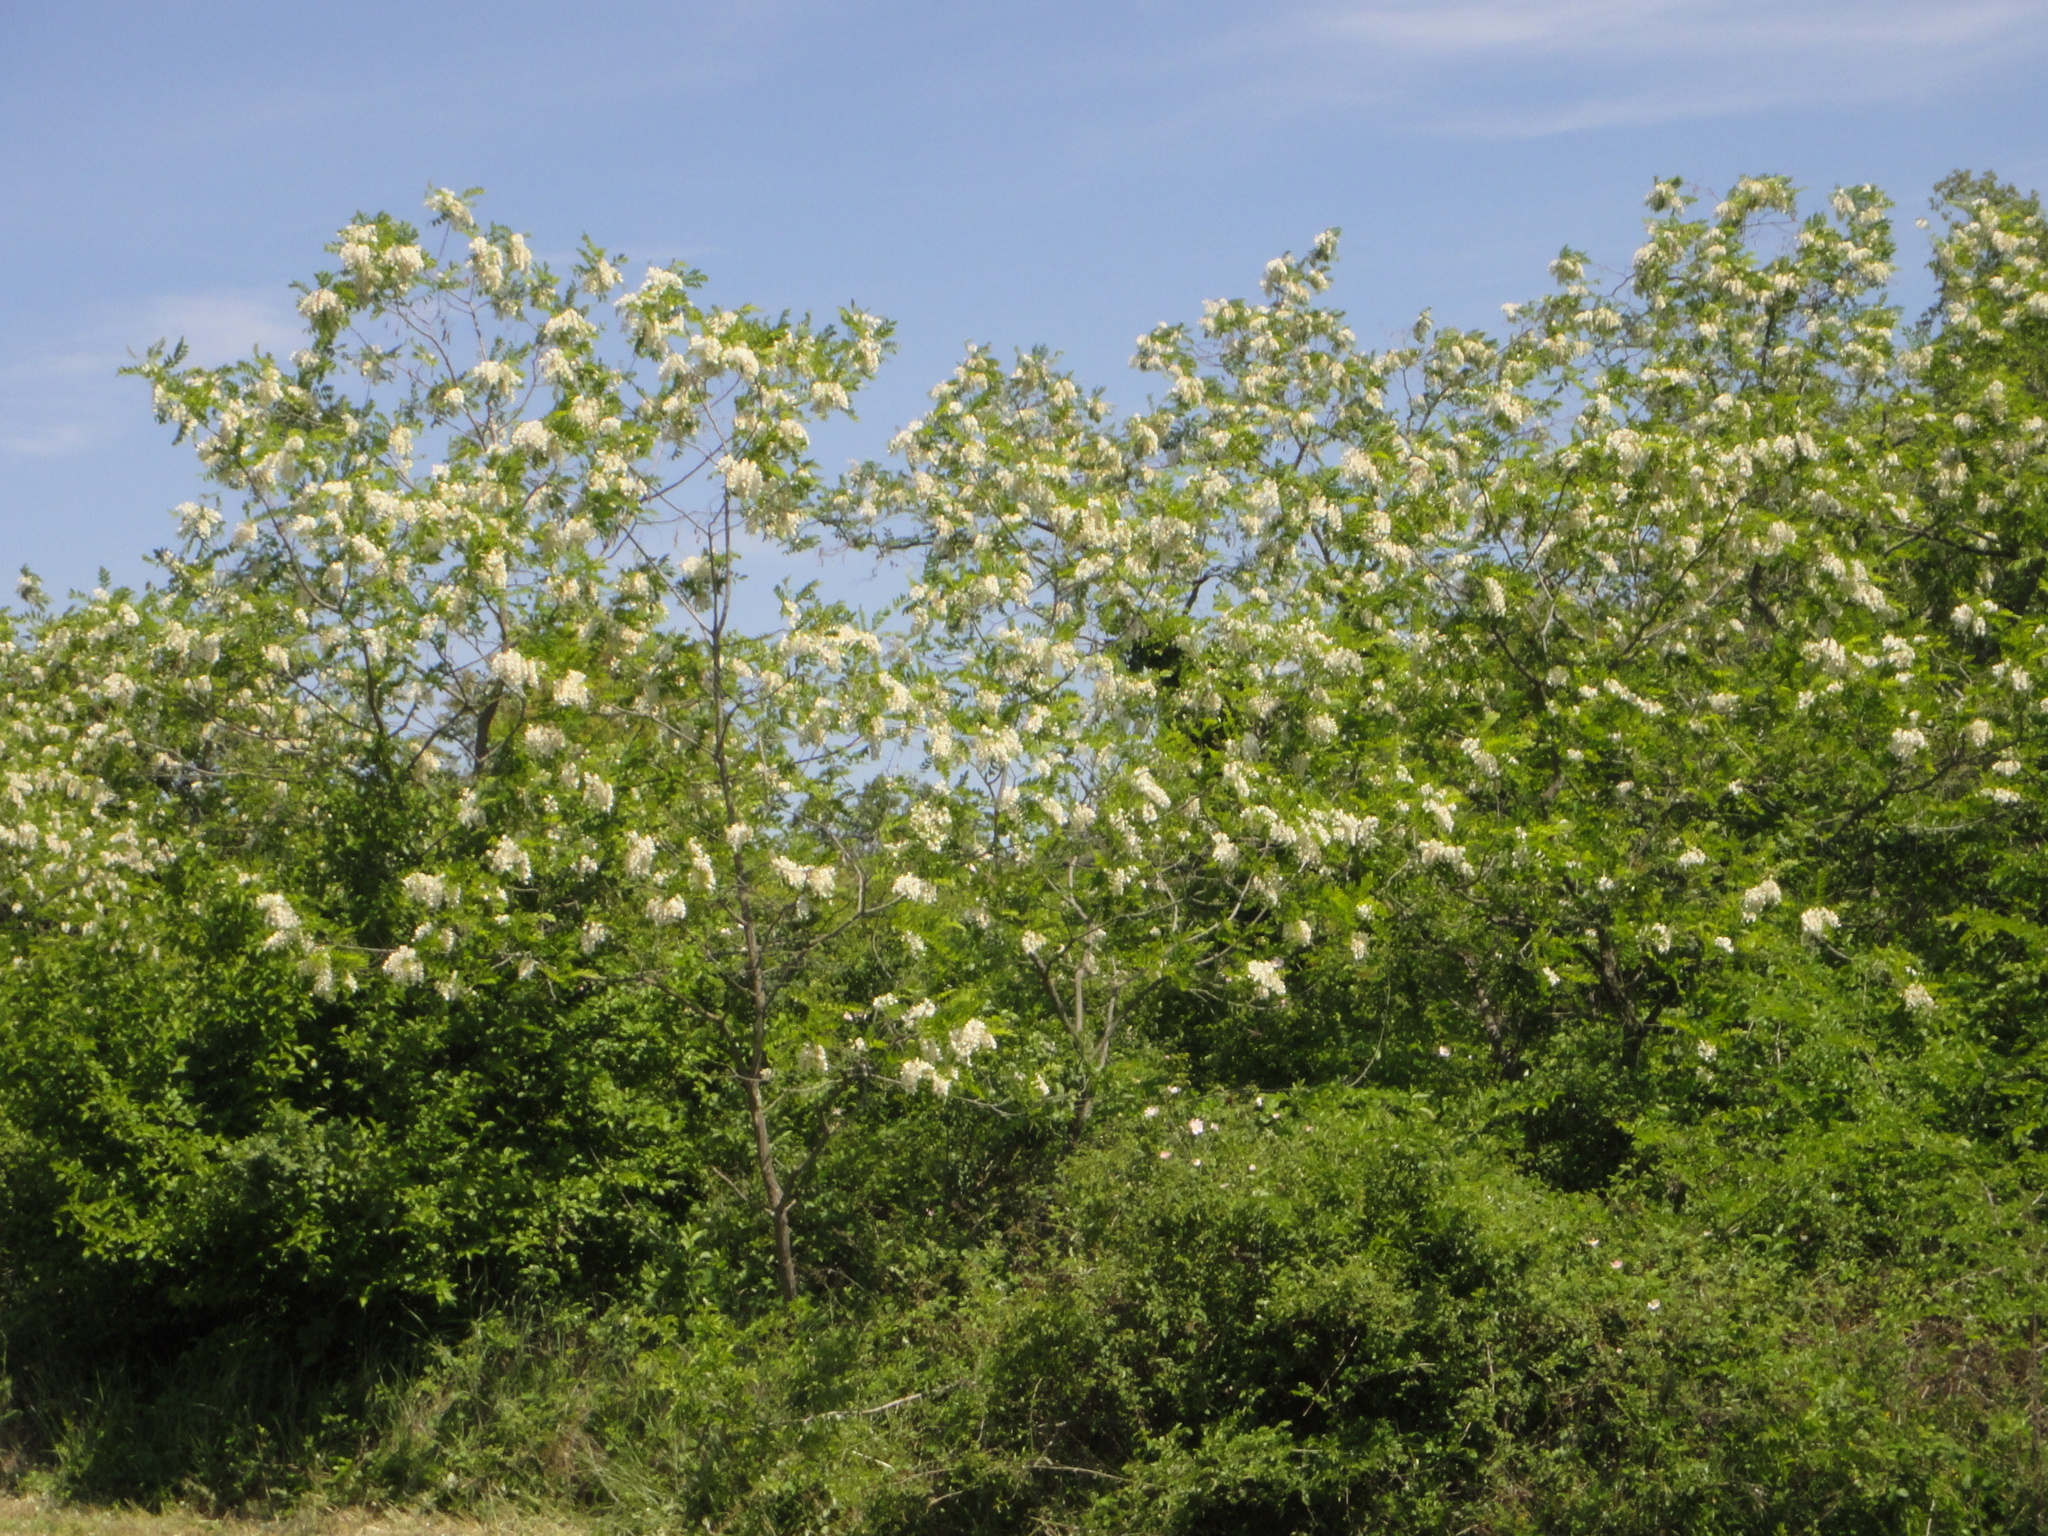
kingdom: Plantae
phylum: Tracheophyta
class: Magnoliopsida
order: Fabales
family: Fabaceae
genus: Robinia
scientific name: Robinia pseudoacacia
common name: Black locust
